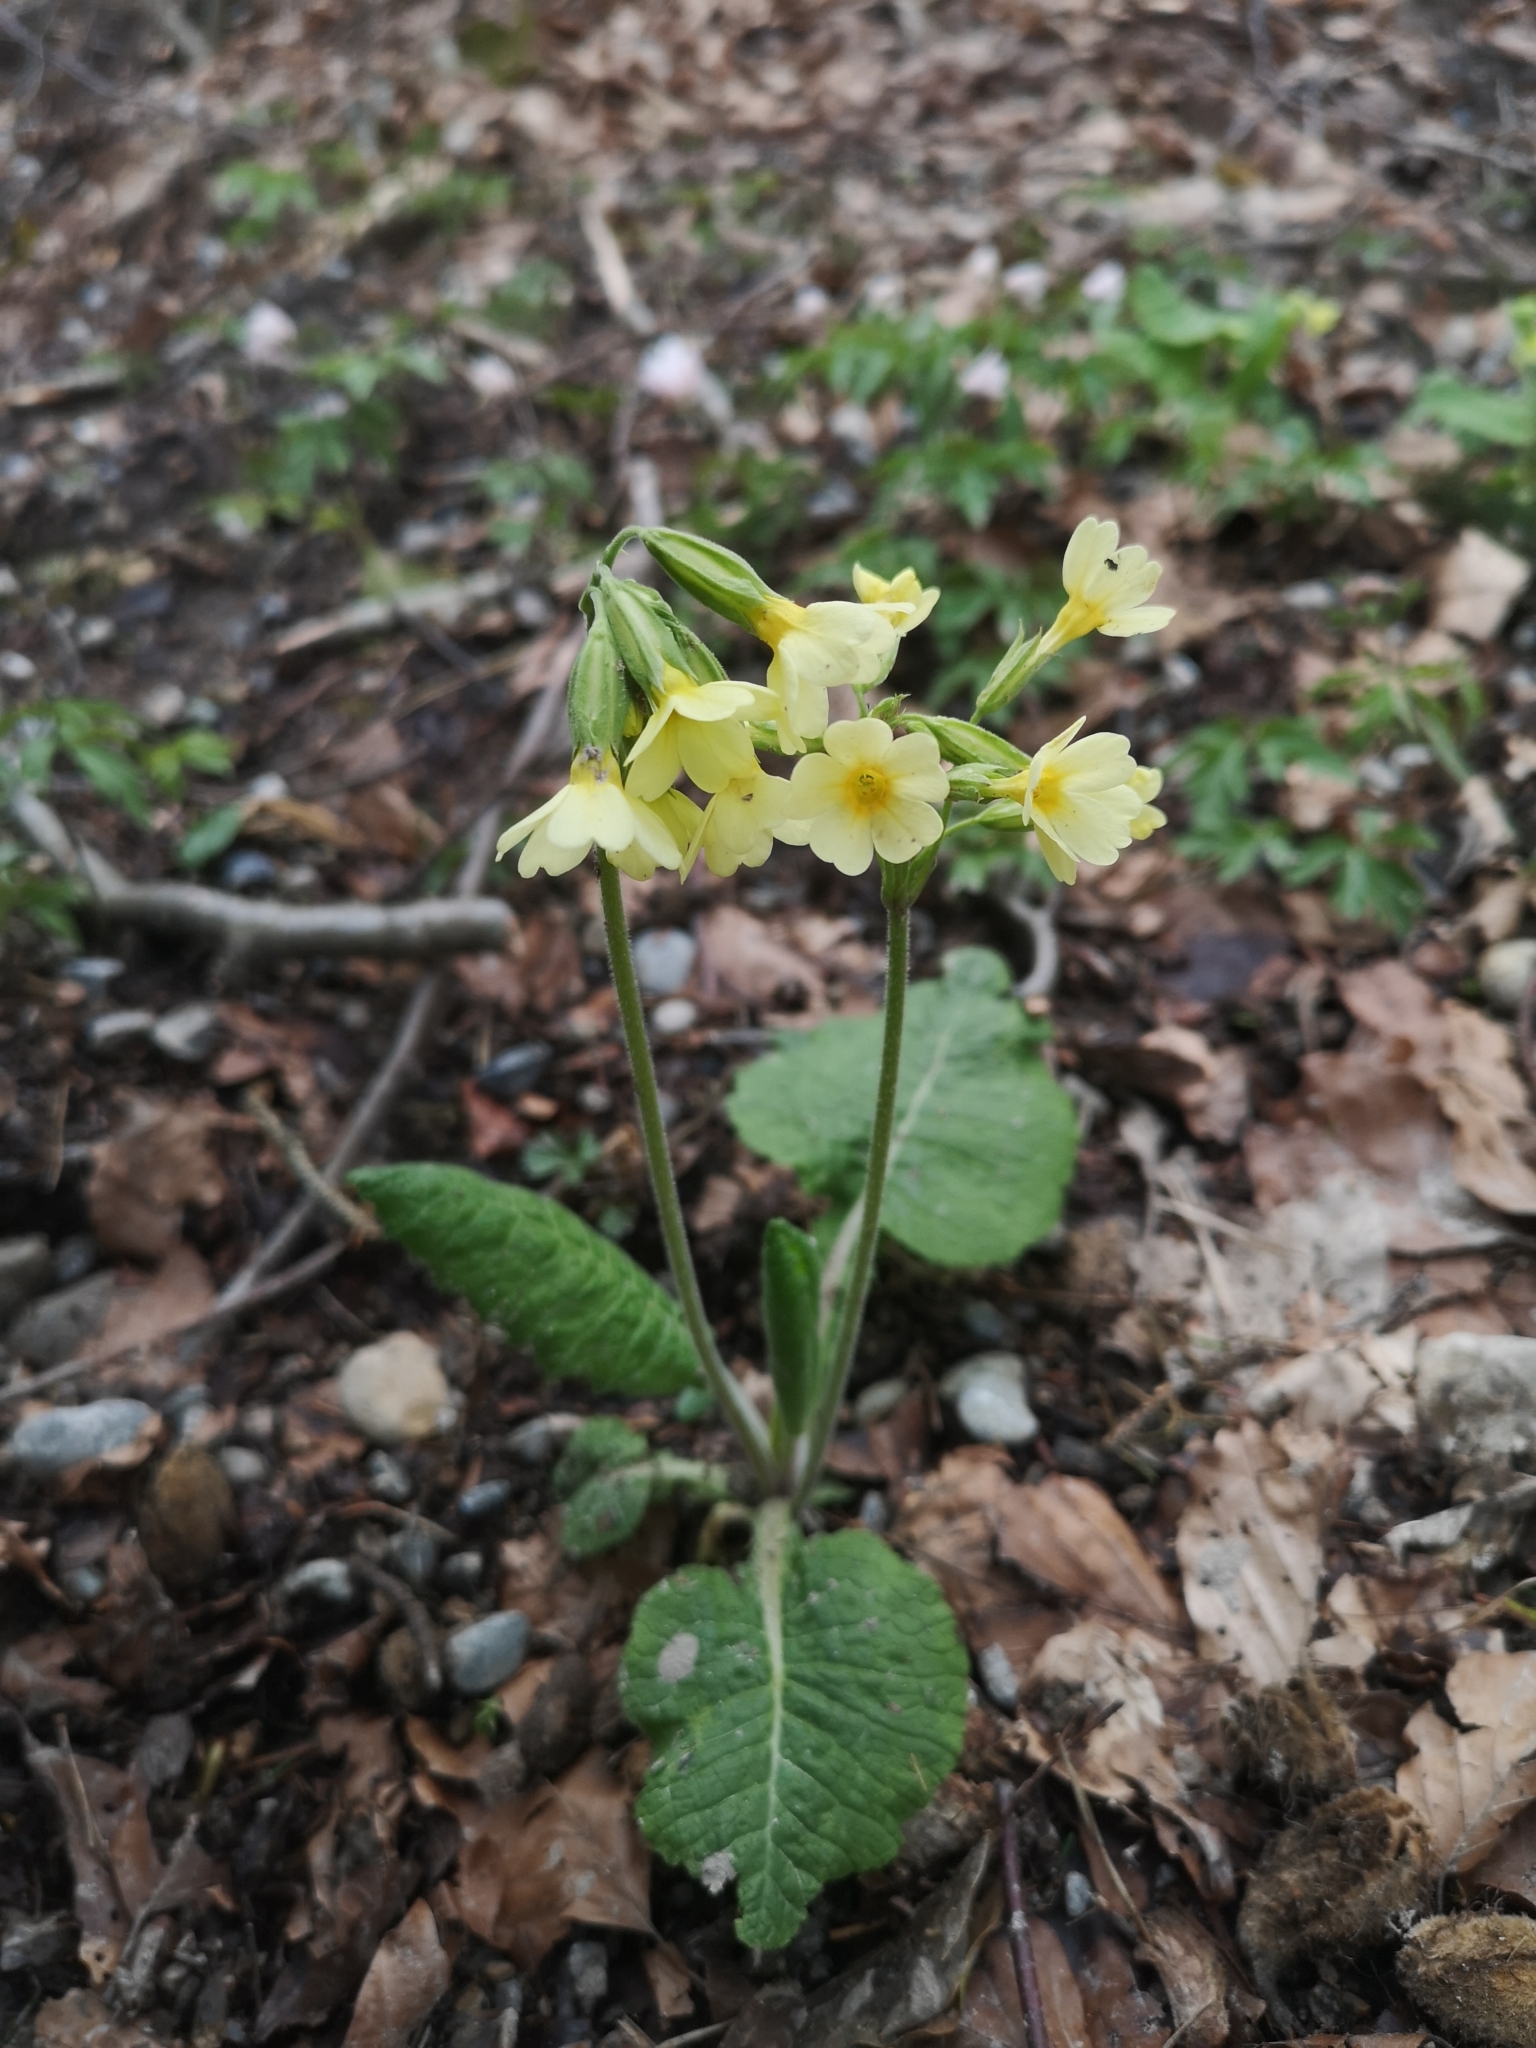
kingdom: Plantae
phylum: Tracheophyta
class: Magnoliopsida
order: Ericales
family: Primulaceae
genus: Primula
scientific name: Primula elatior
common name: Oxlip
